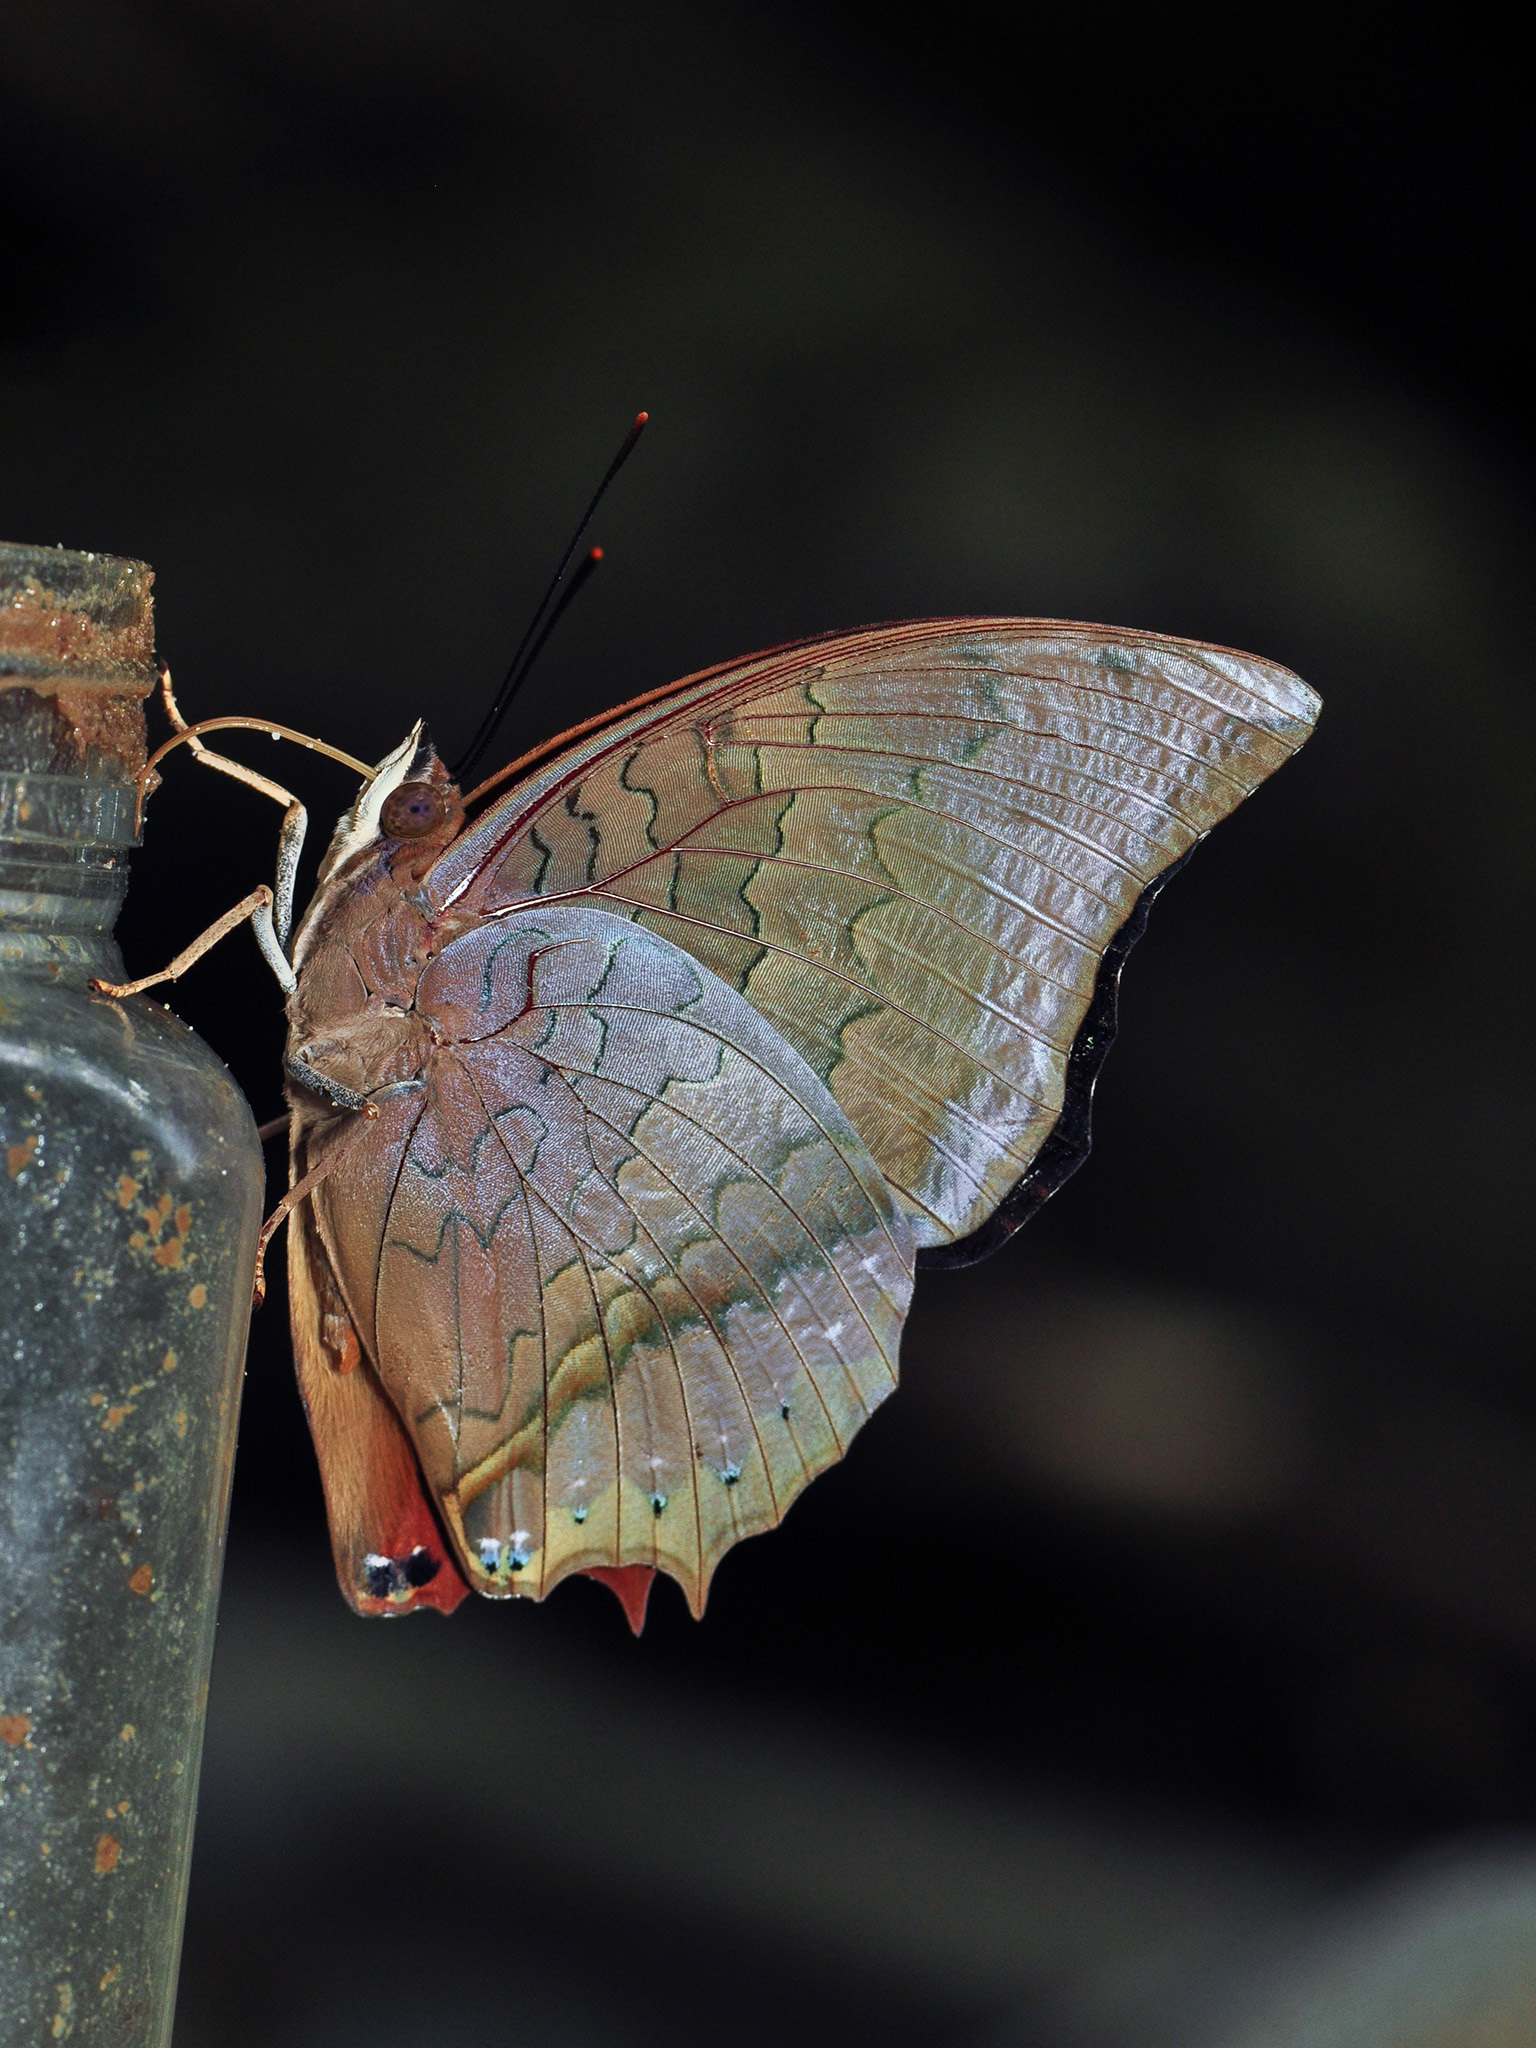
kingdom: Animalia
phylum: Arthropoda
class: Insecta
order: Lepidoptera
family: Nymphalidae
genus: Charaxes
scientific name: Charaxes bernardus
